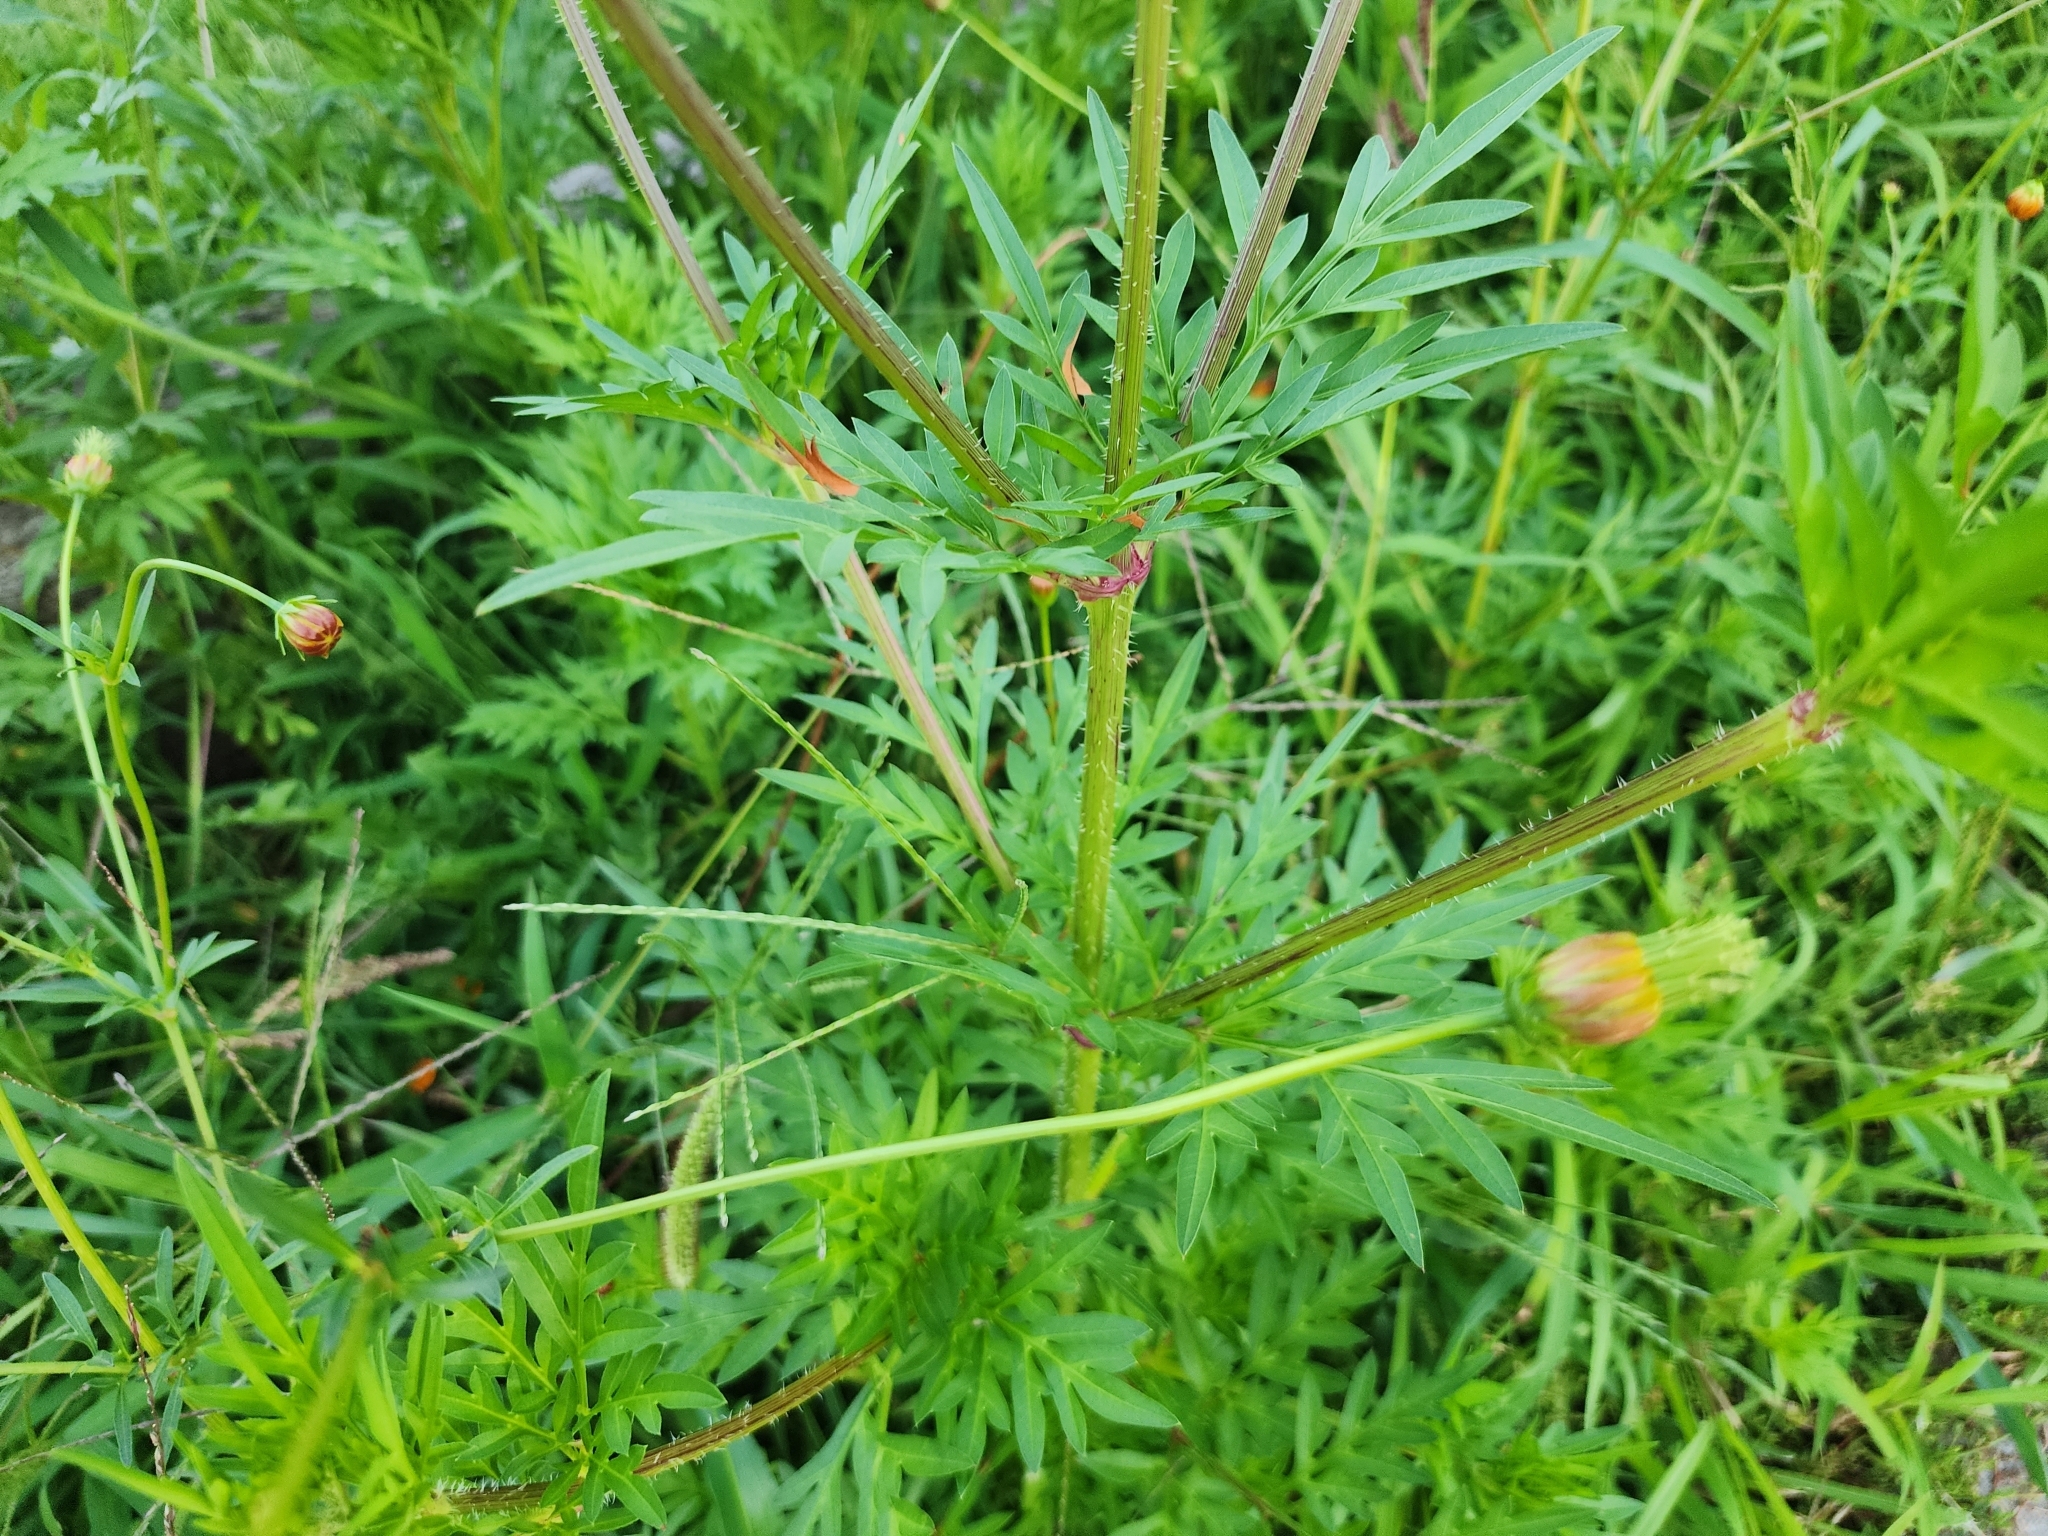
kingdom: Plantae
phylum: Tracheophyta
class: Magnoliopsida
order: Asterales
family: Asteraceae
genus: Cosmos
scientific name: Cosmos sulphureus
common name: Sulphur cosmos
